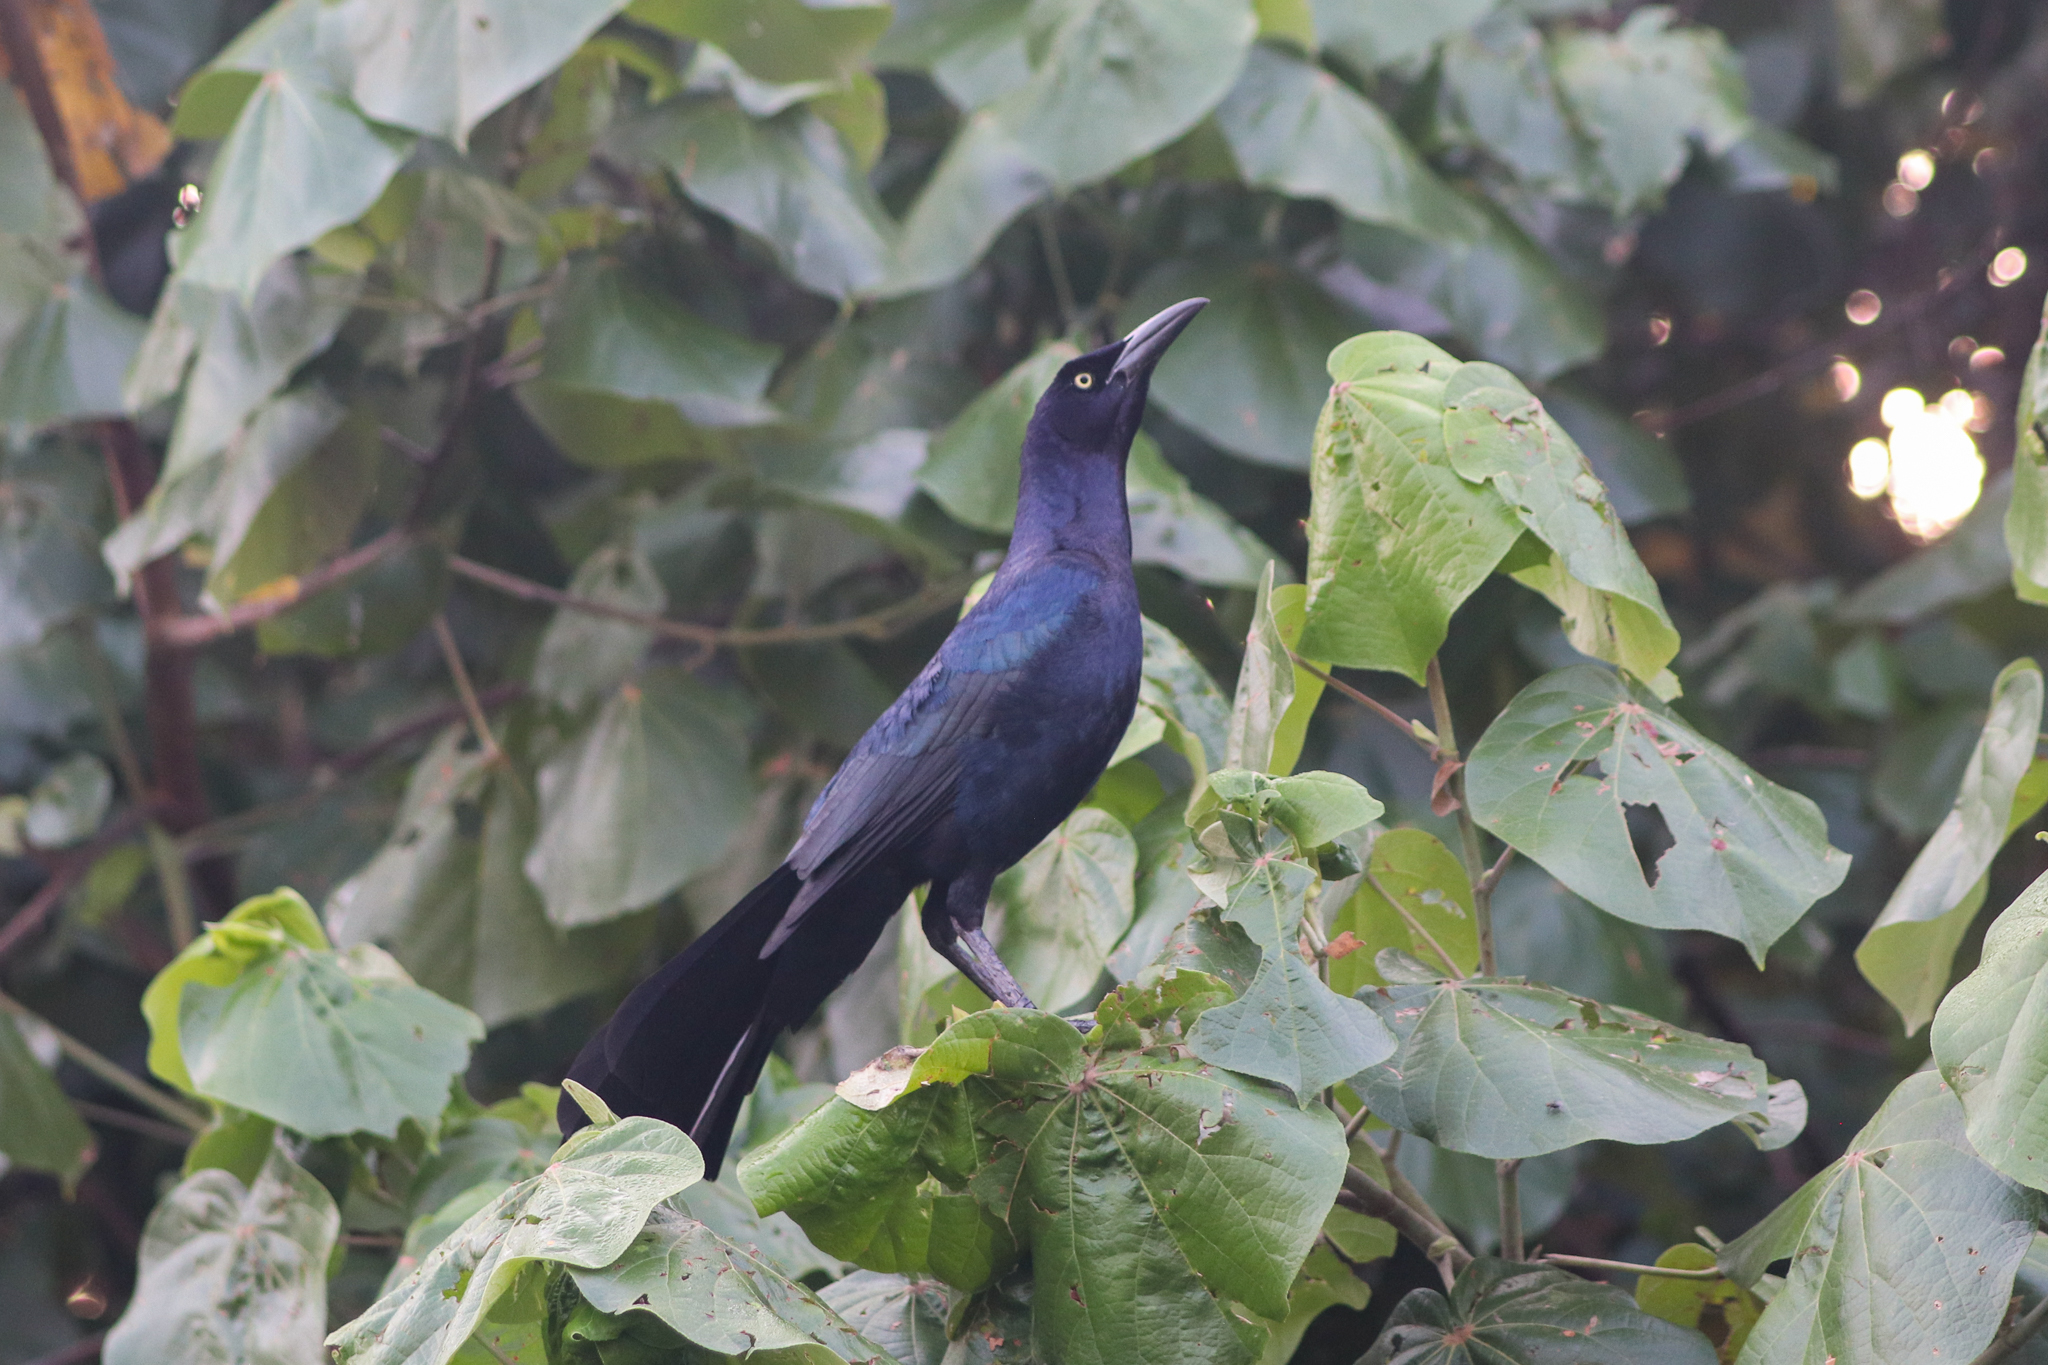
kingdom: Animalia
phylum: Chordata
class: Aves
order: Passeriformes
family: Icteridae
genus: Quiscalus
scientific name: Quiscalus mexicanus
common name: Great-tailed grackle
